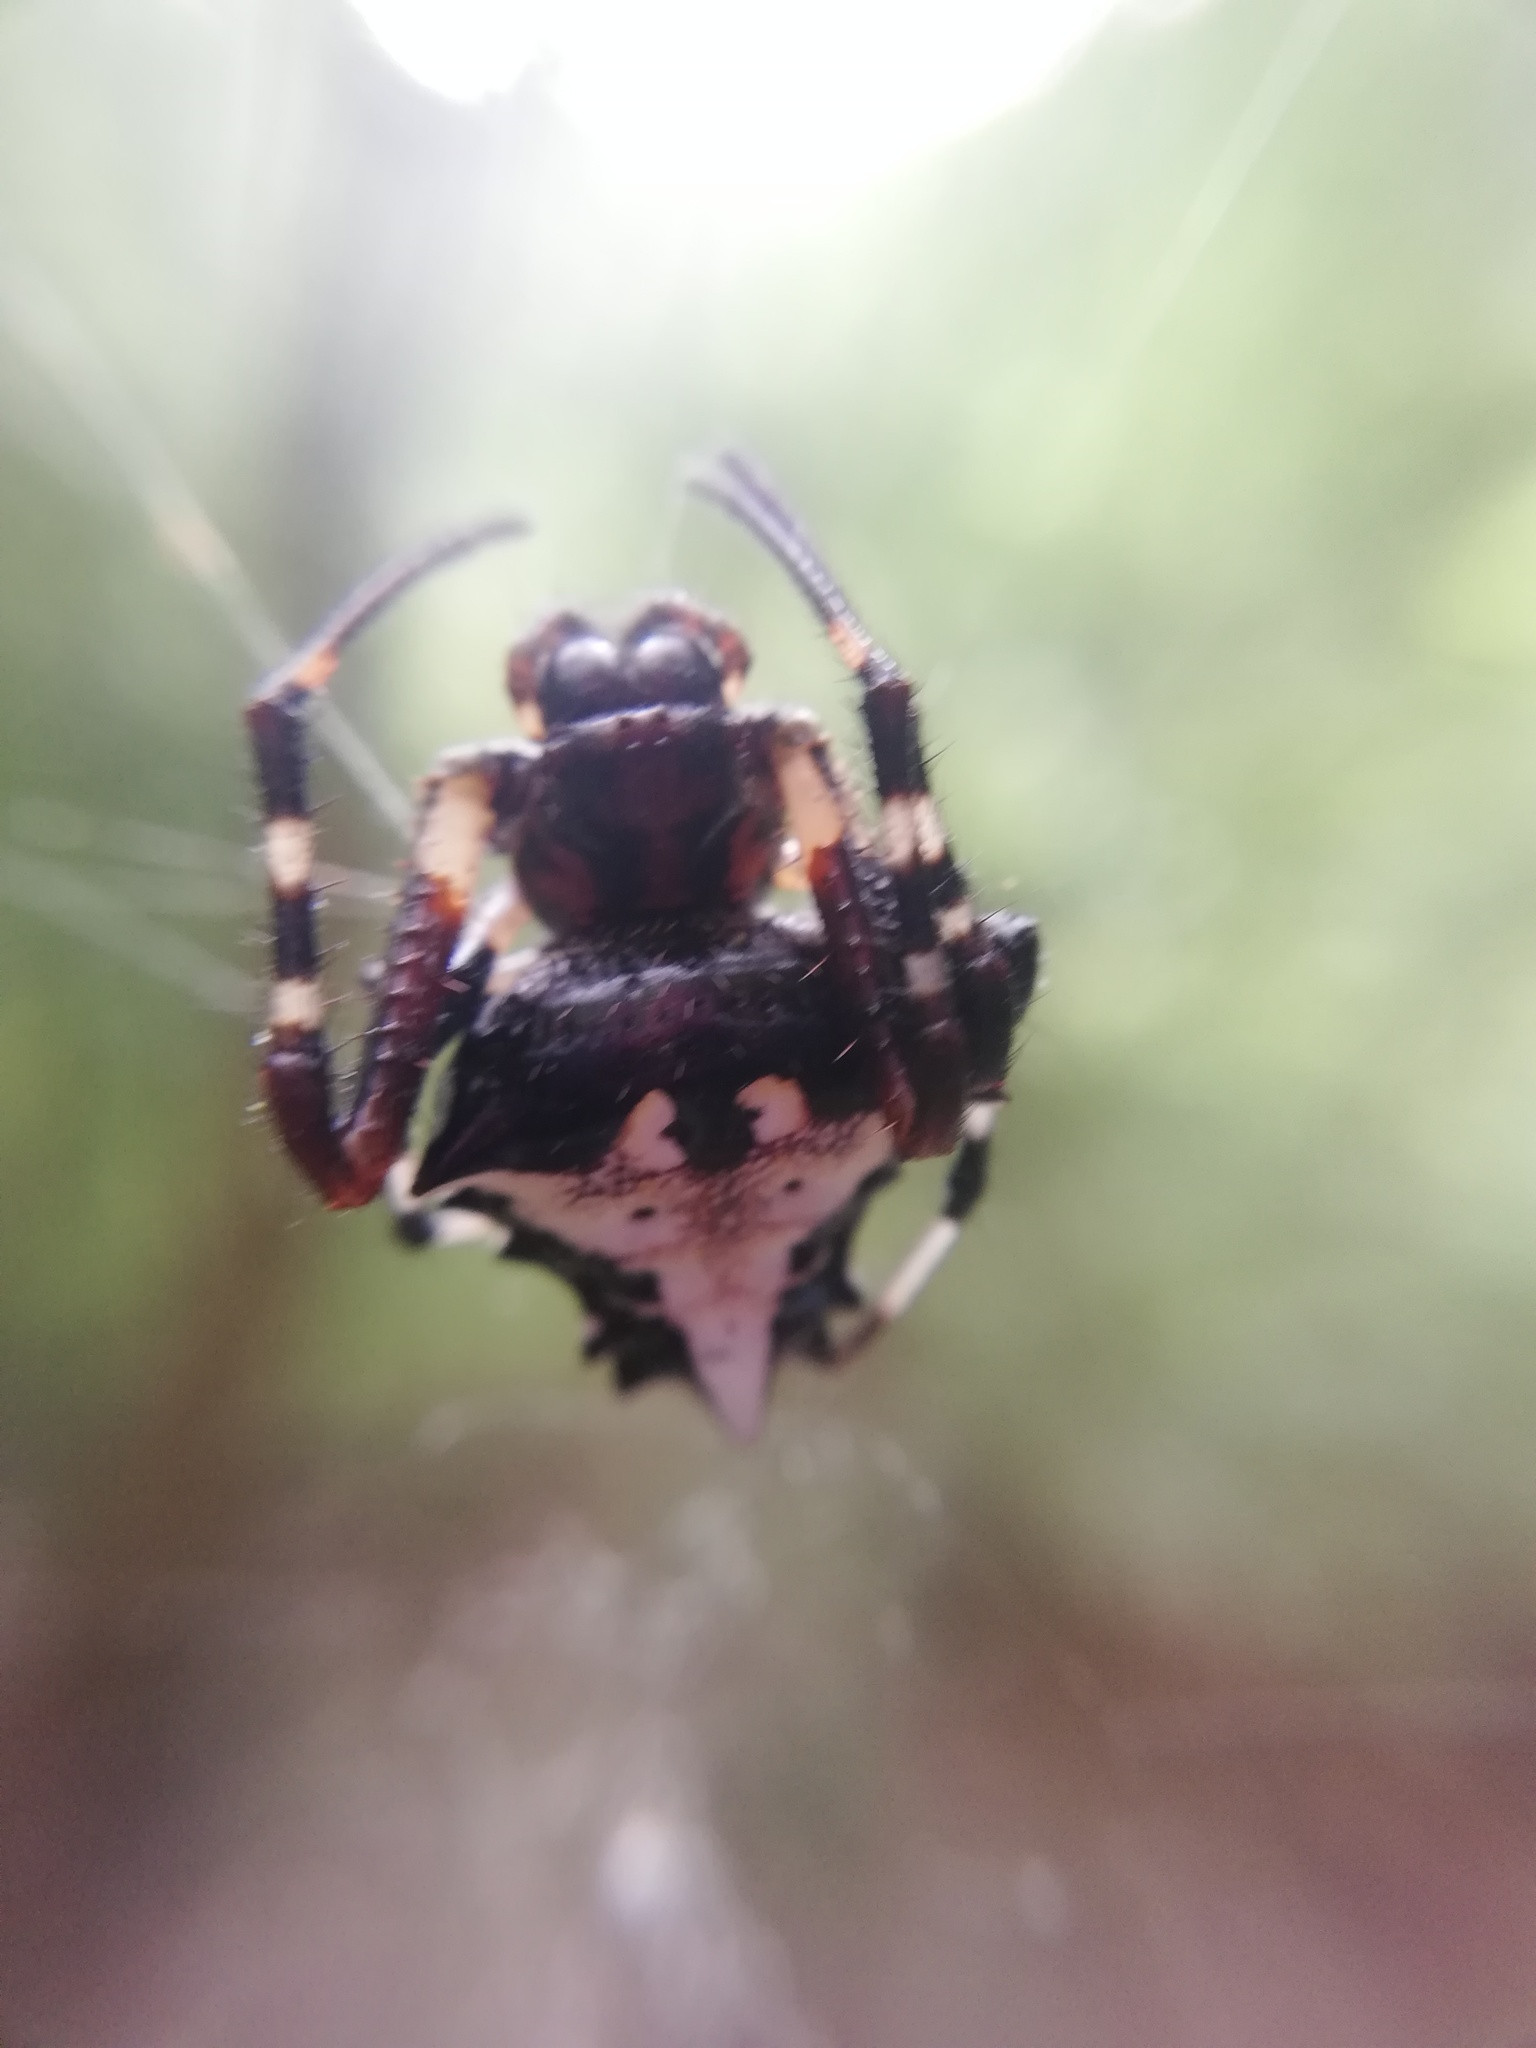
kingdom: Animalia
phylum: Arthropoda
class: Arachnida
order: Araneae
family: Araneidae
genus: Verrucosa
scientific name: Verrucosa arenata
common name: Orb weavers
